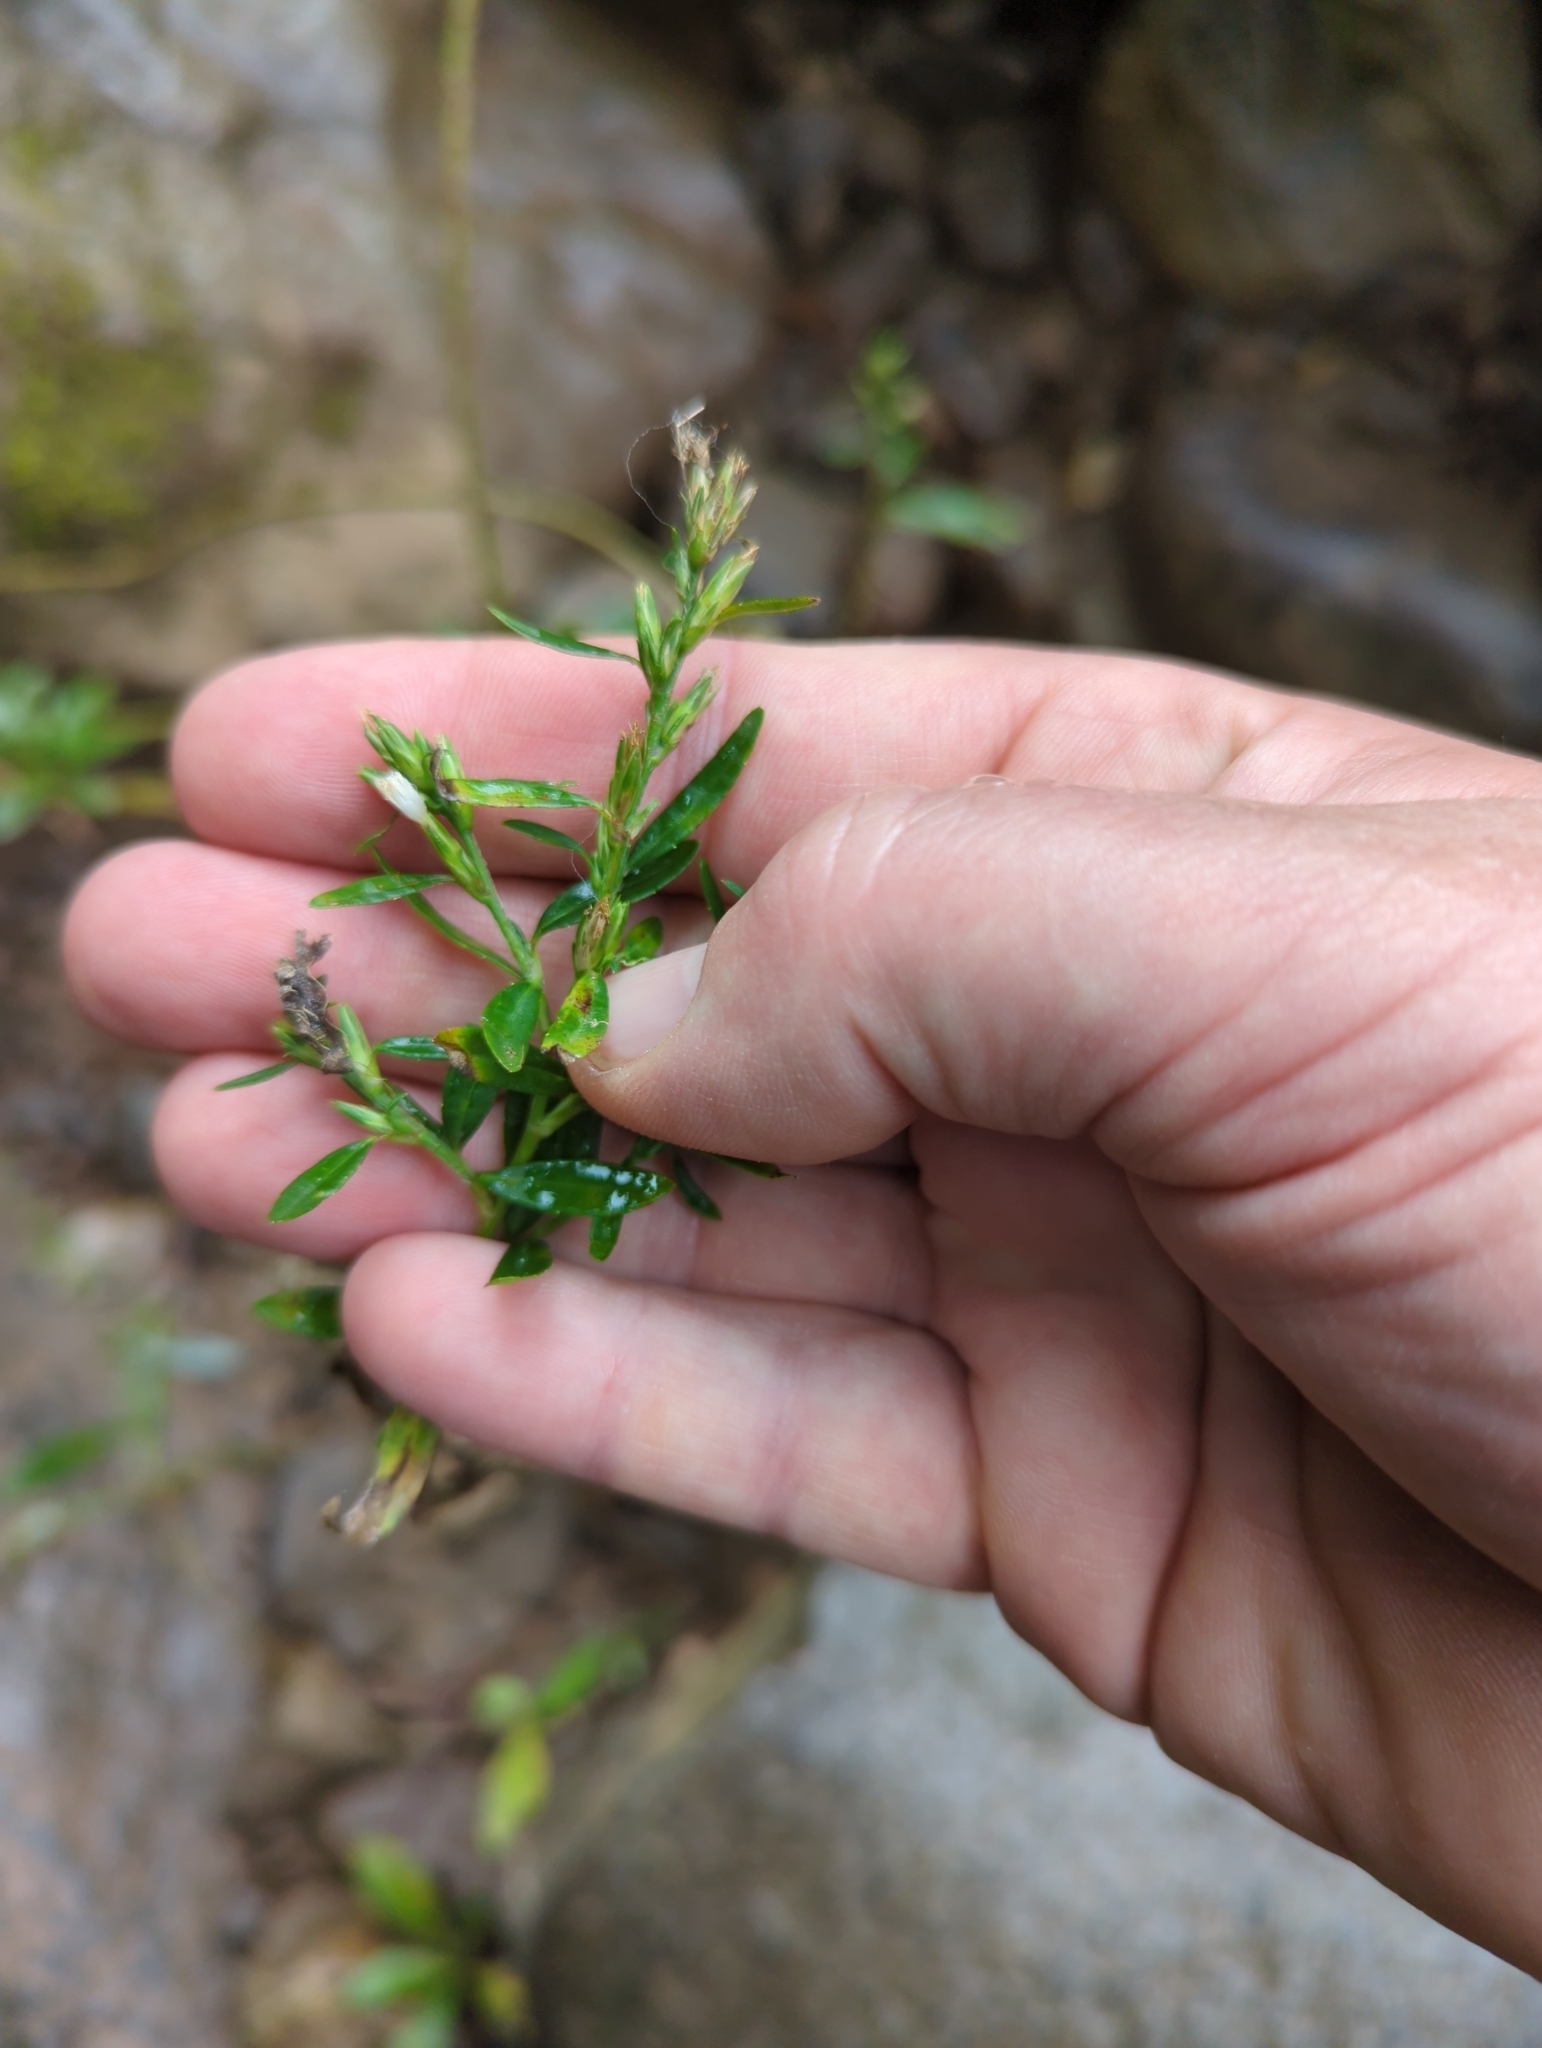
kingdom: Plantae
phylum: Tracheophyta
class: Magnoliopsida
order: Asterales
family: Asteraceae
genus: Pseudelephantopus
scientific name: Pseudelephantopus spicatus
